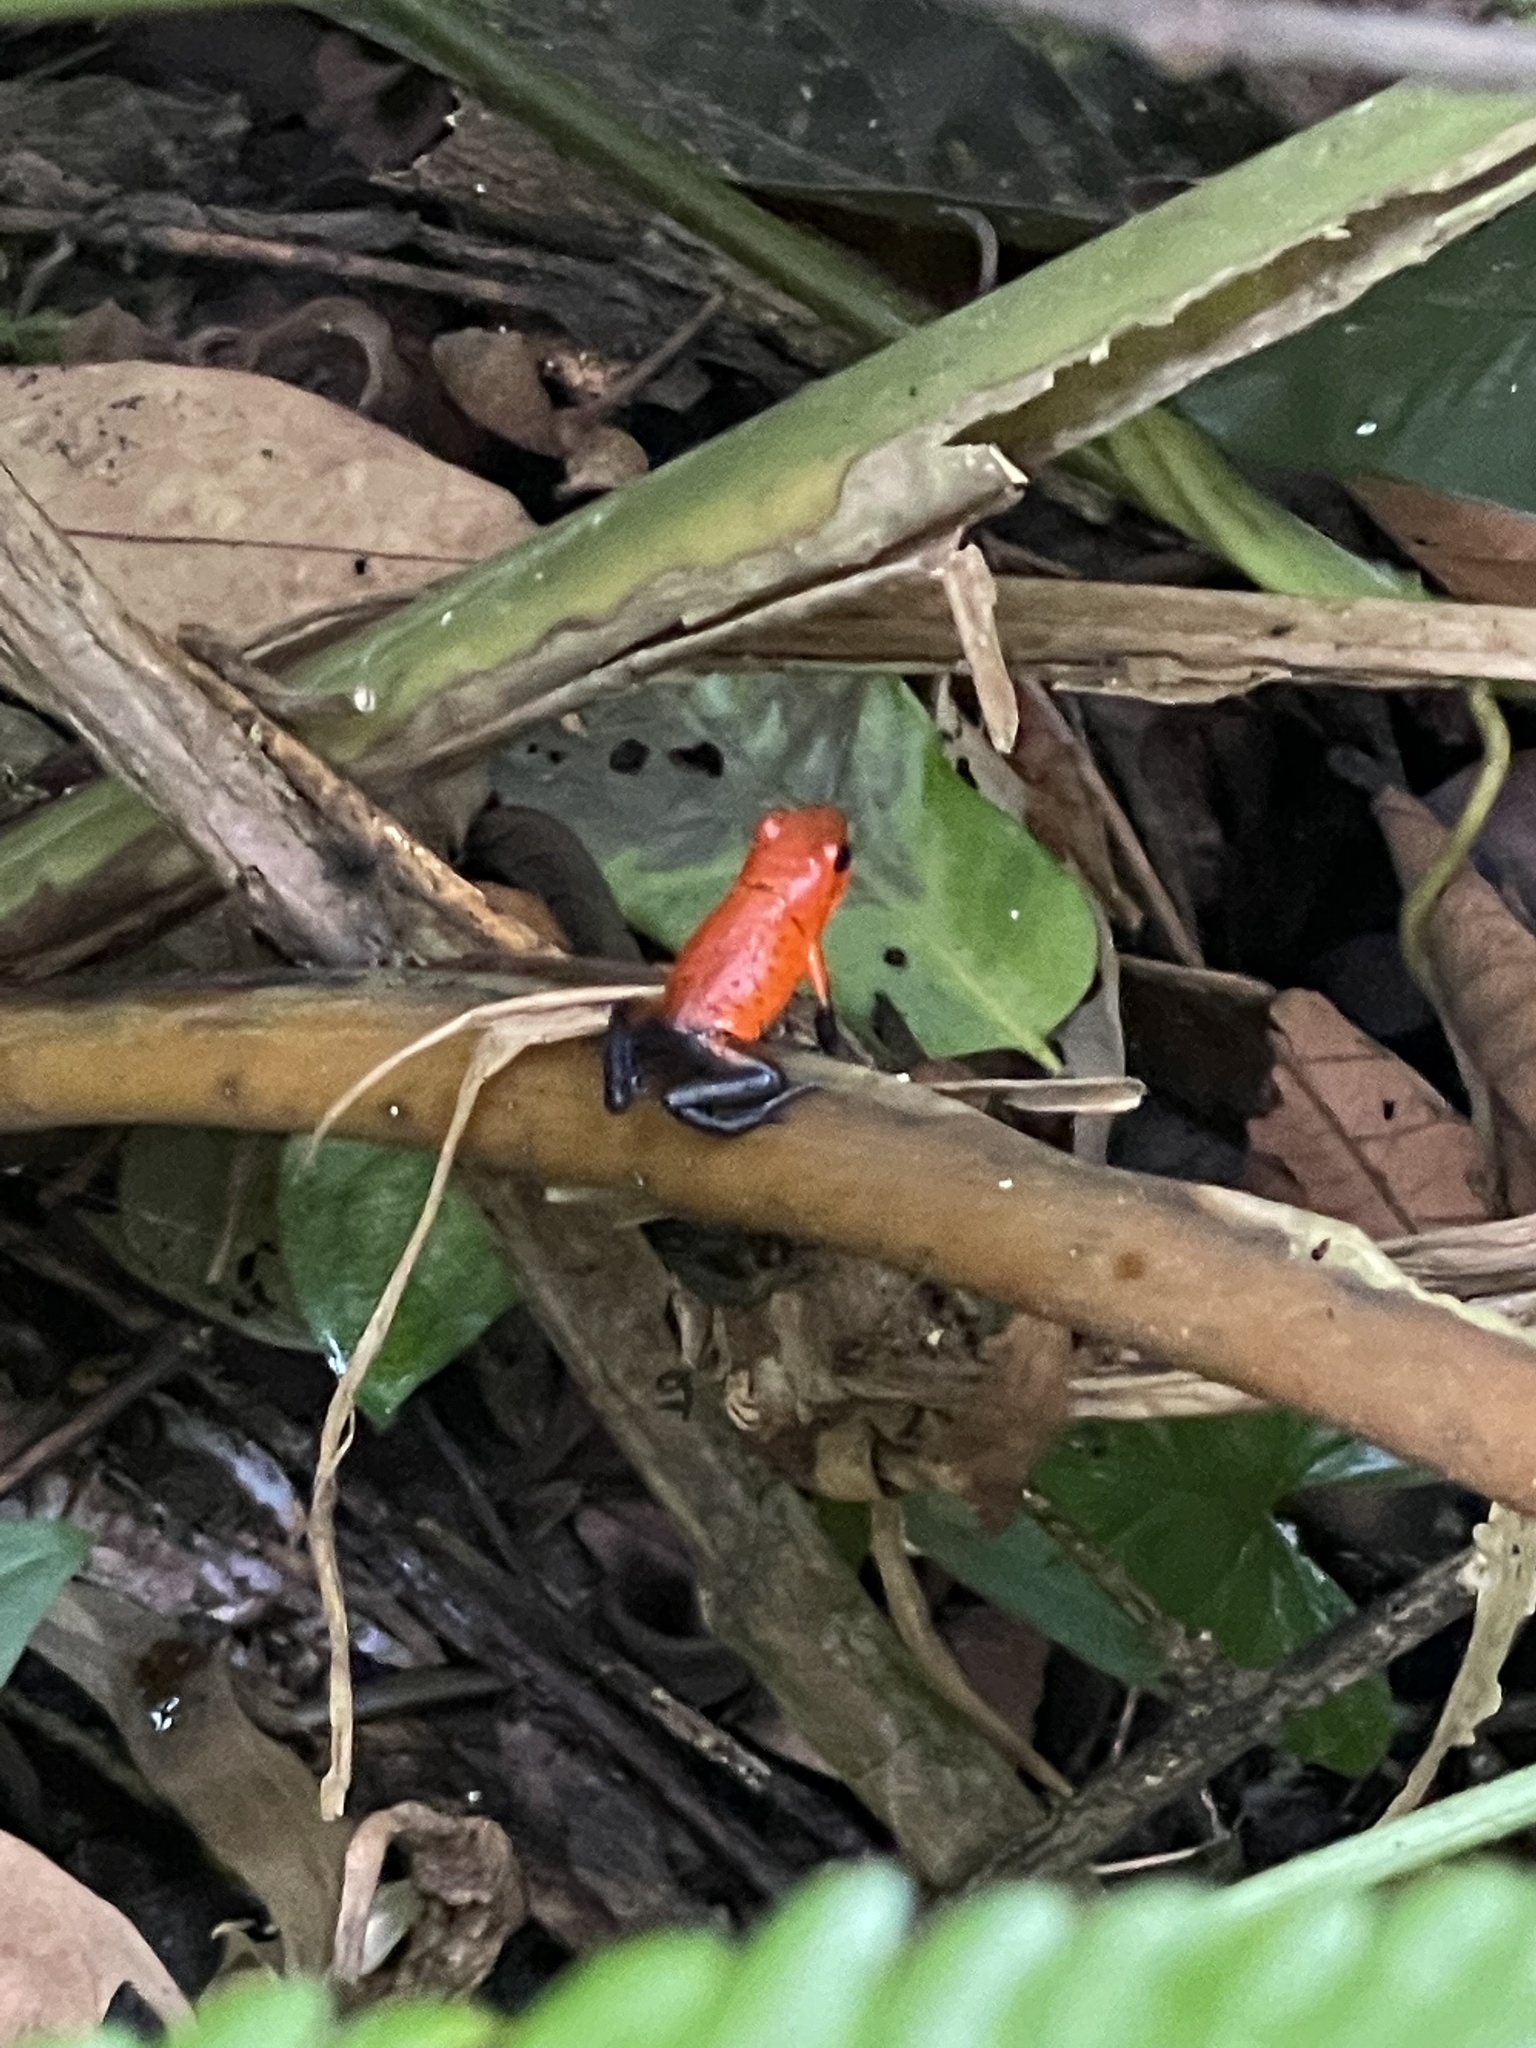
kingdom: Animalia
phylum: Chordata
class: Amphibia
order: Anura
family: Dendrobatidae
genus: Oophaga
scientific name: Oophaga pumilio
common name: Flaming poison frog
